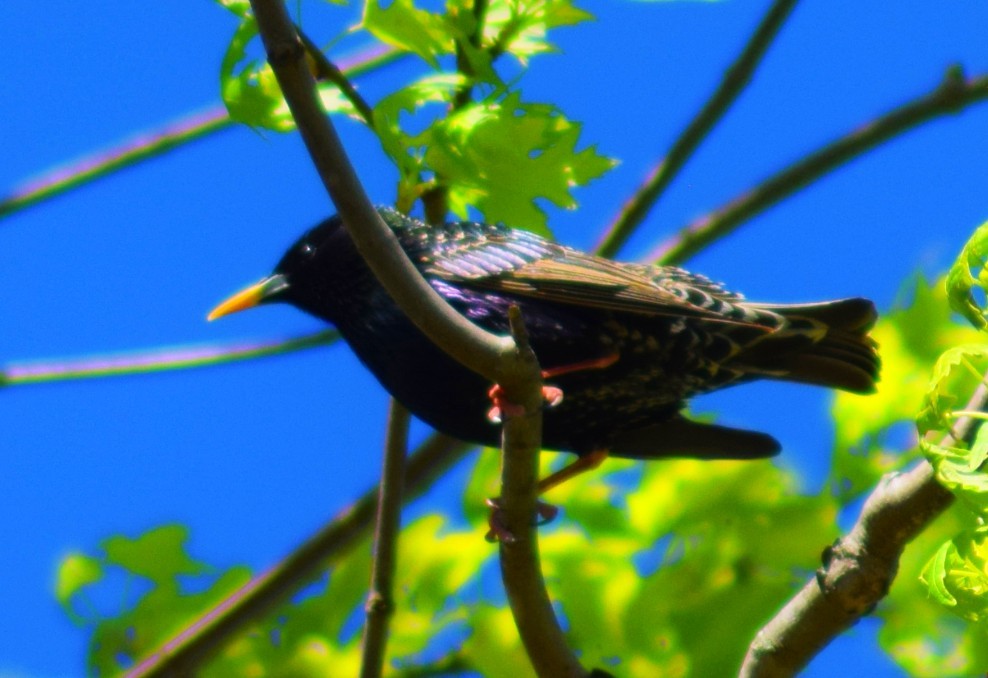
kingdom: Animalia
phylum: Chordata
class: Aves
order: Passeriformes
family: Sturnidae
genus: Sturnus
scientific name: Sturnus vulgaris
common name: Common starling
